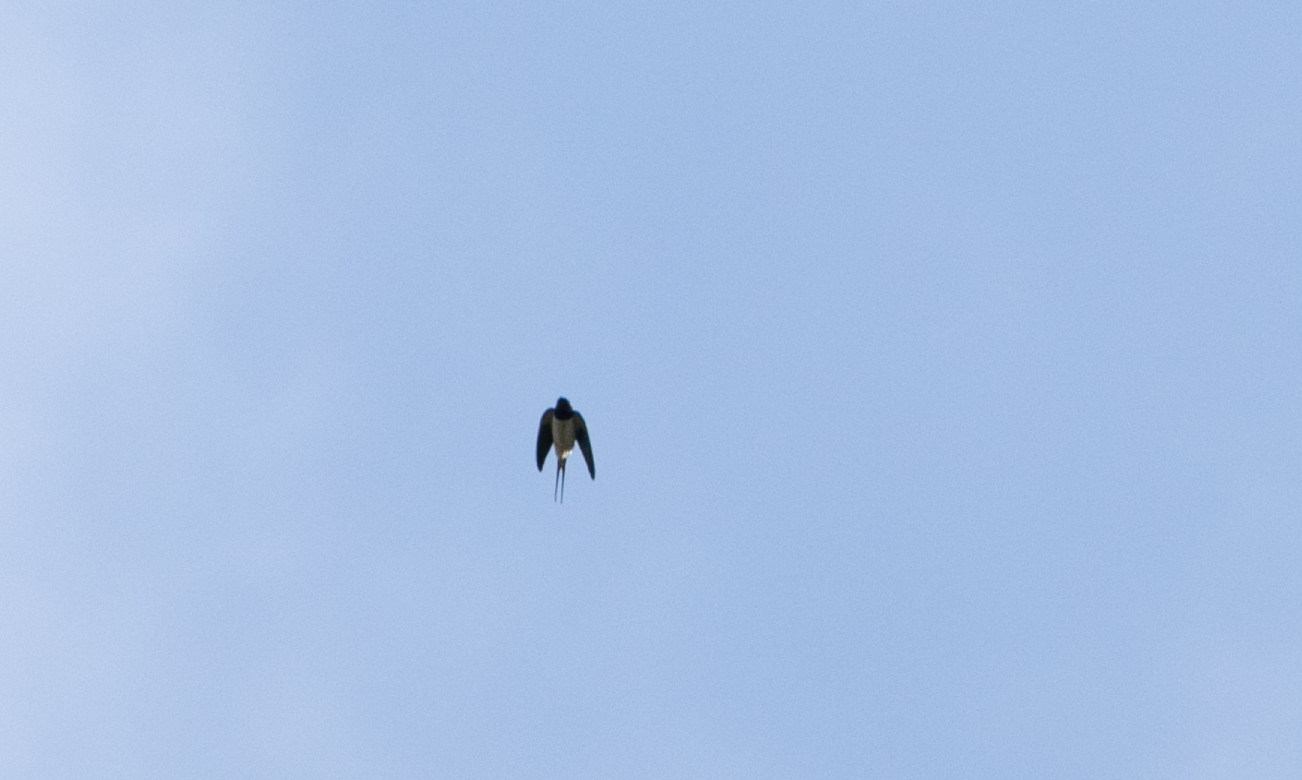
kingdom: Animalia
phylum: Chordata
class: Aves
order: Passeriformes
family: Hirundinidae
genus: Hirundo
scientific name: Hirundo rustica
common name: Barn swallow
